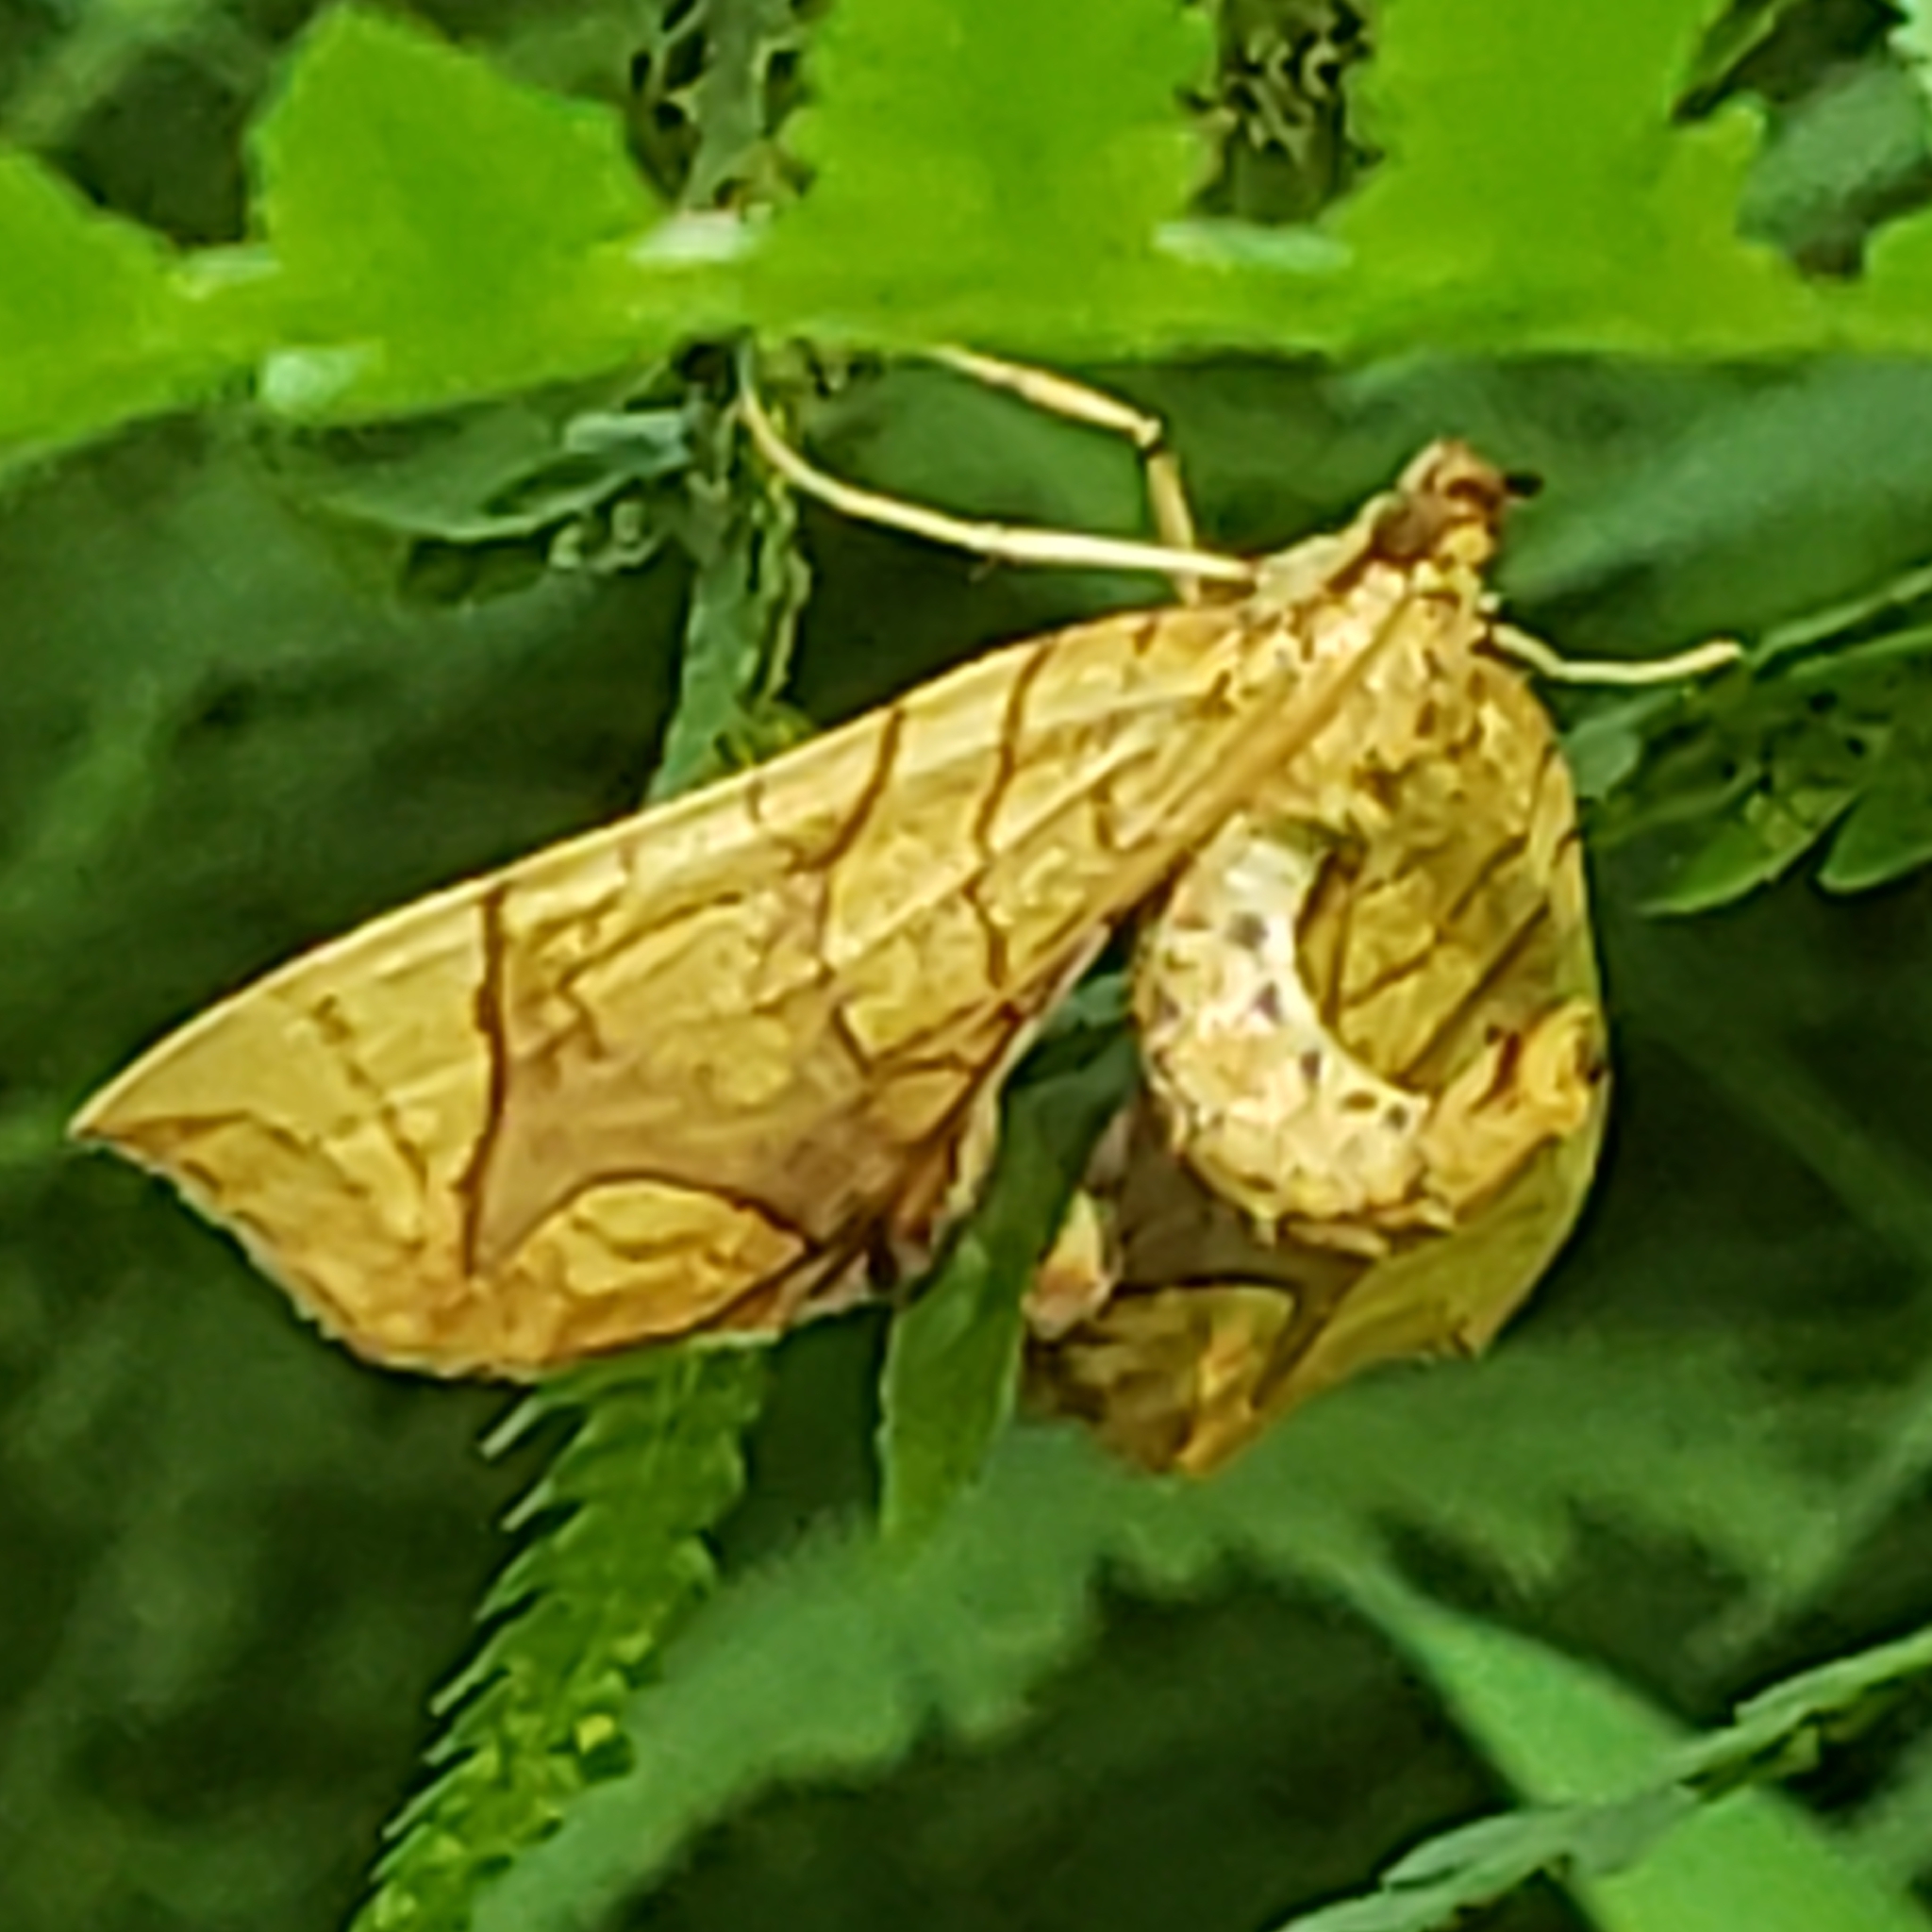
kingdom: Animalia
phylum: Arthropoda
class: Insecta
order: Lepidoptera
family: Geometridae
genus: Eulithis
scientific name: Eulithis
